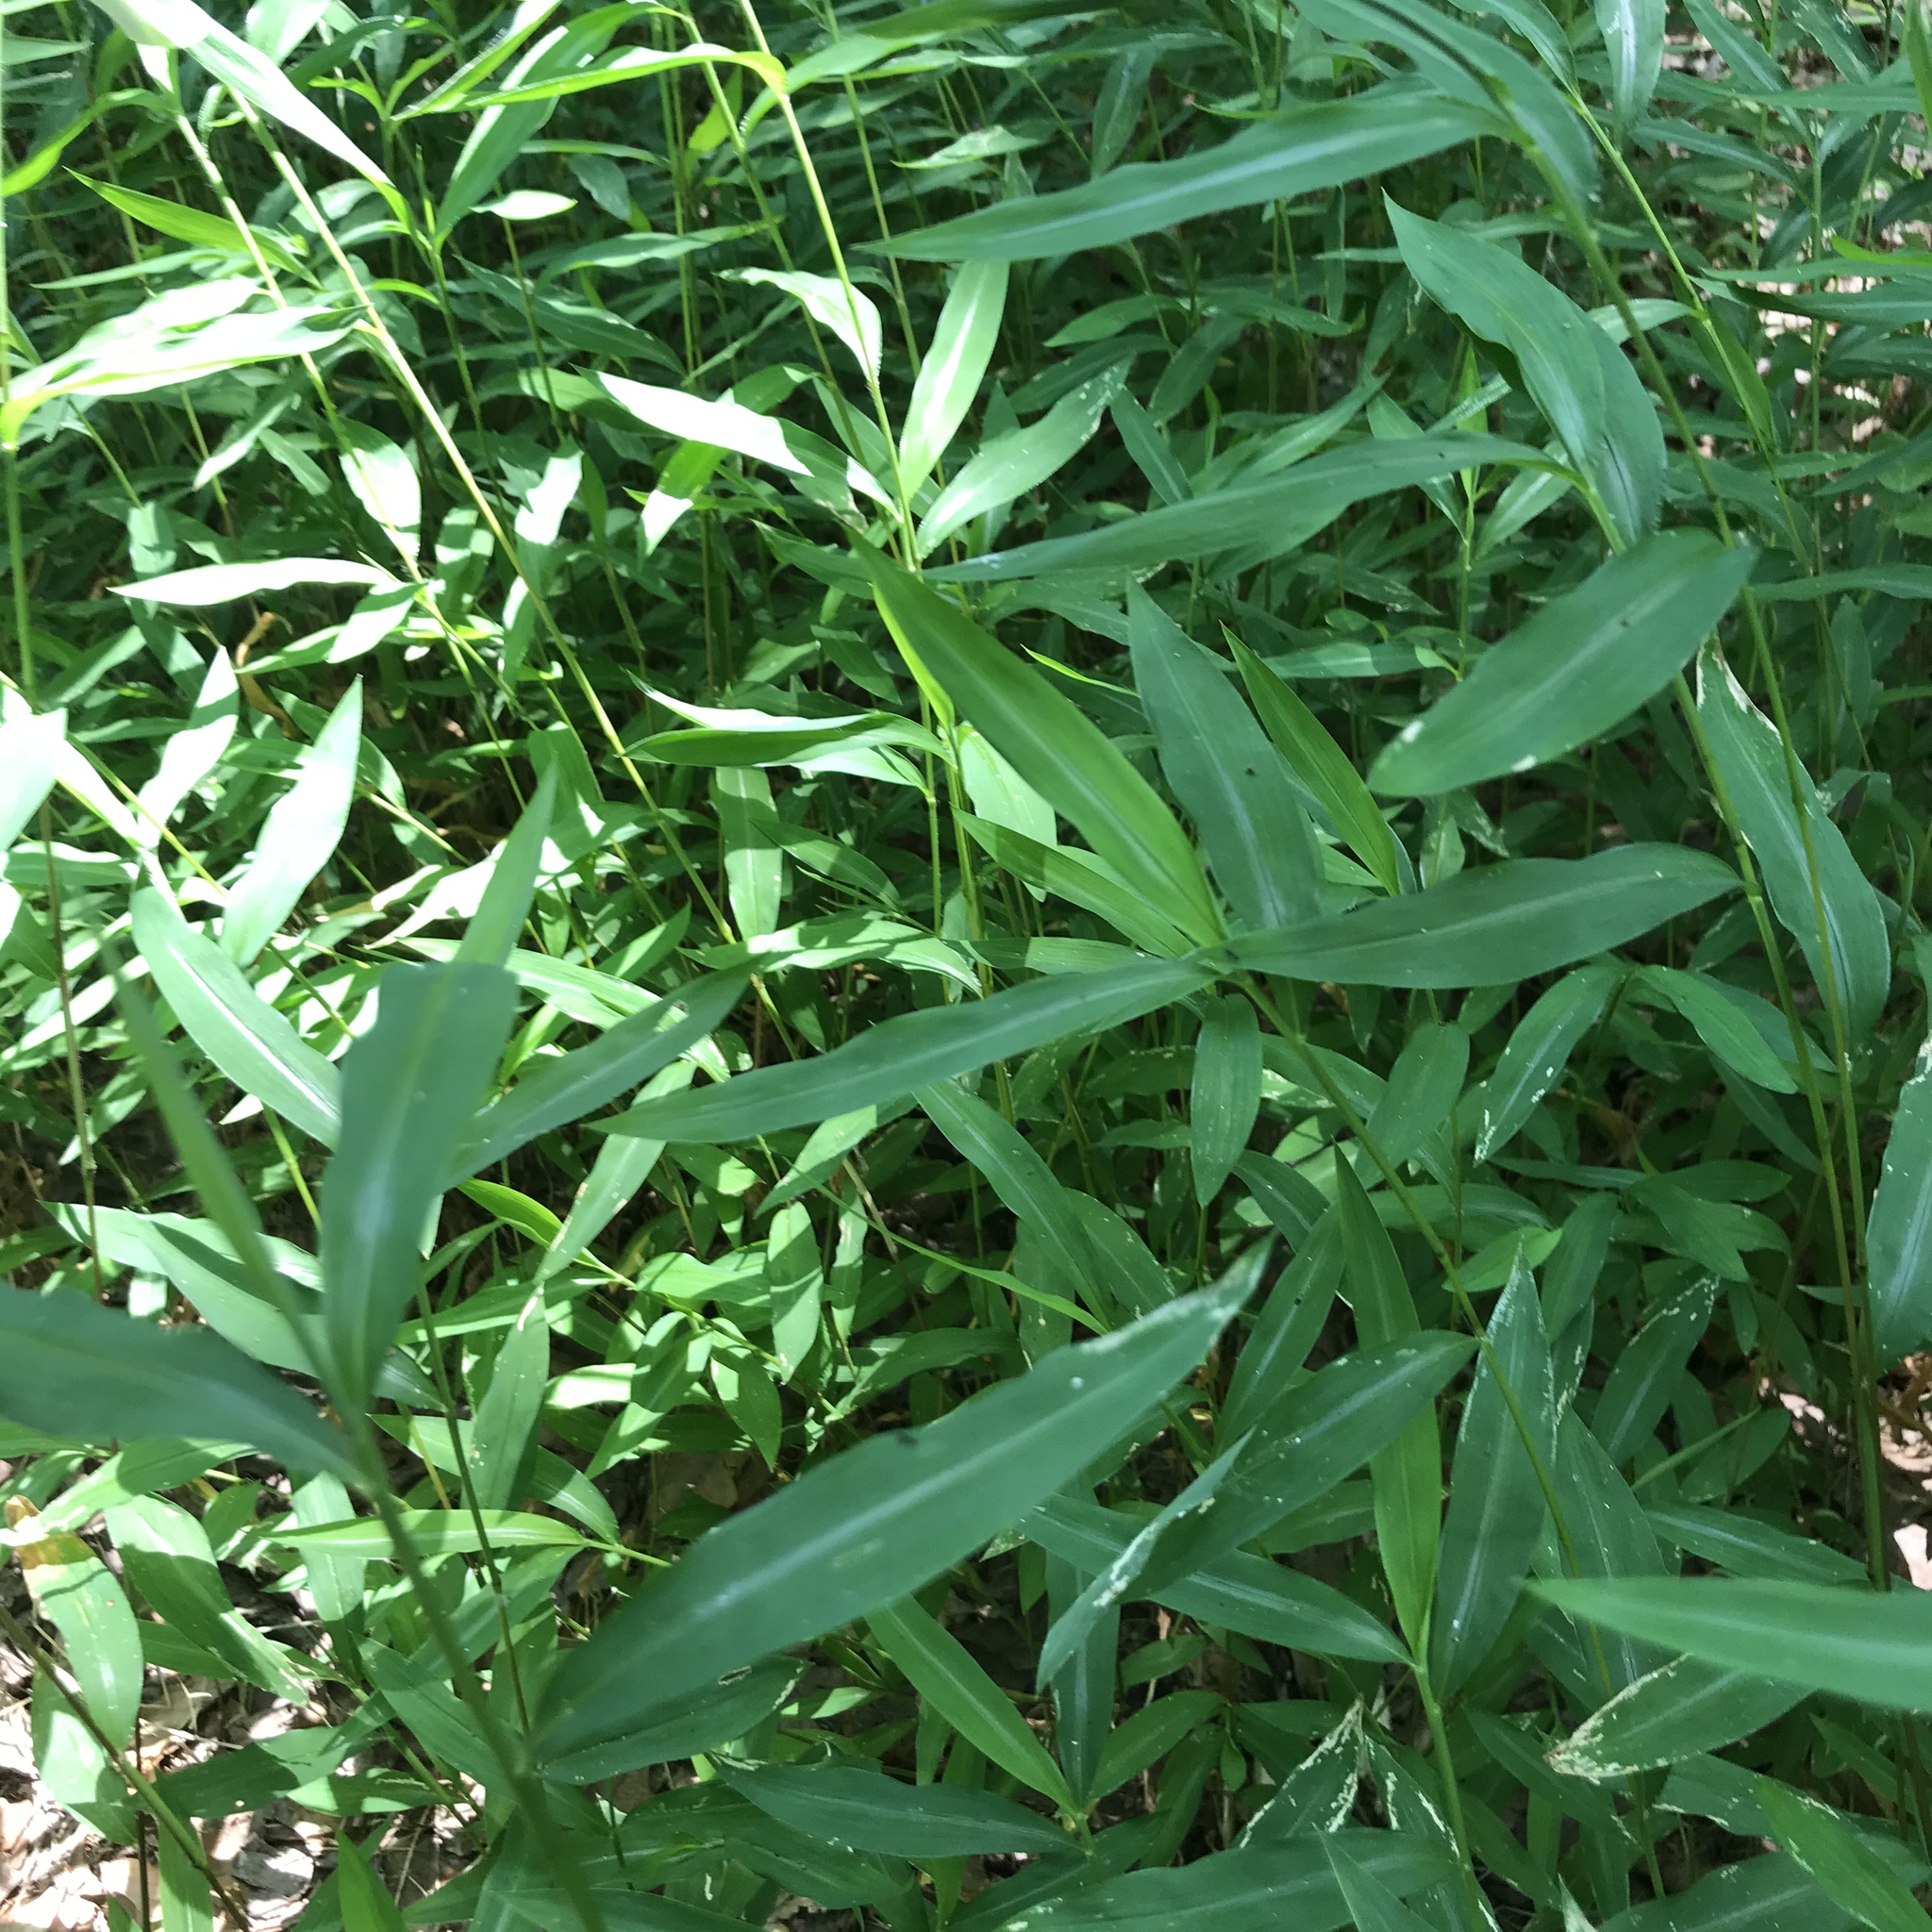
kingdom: Plantae
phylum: Tracheophyta
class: Liliopsida
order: Poales
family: Poaceae
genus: Microstegium
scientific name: Microstegium vimineum
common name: Japanese stiltgrass
